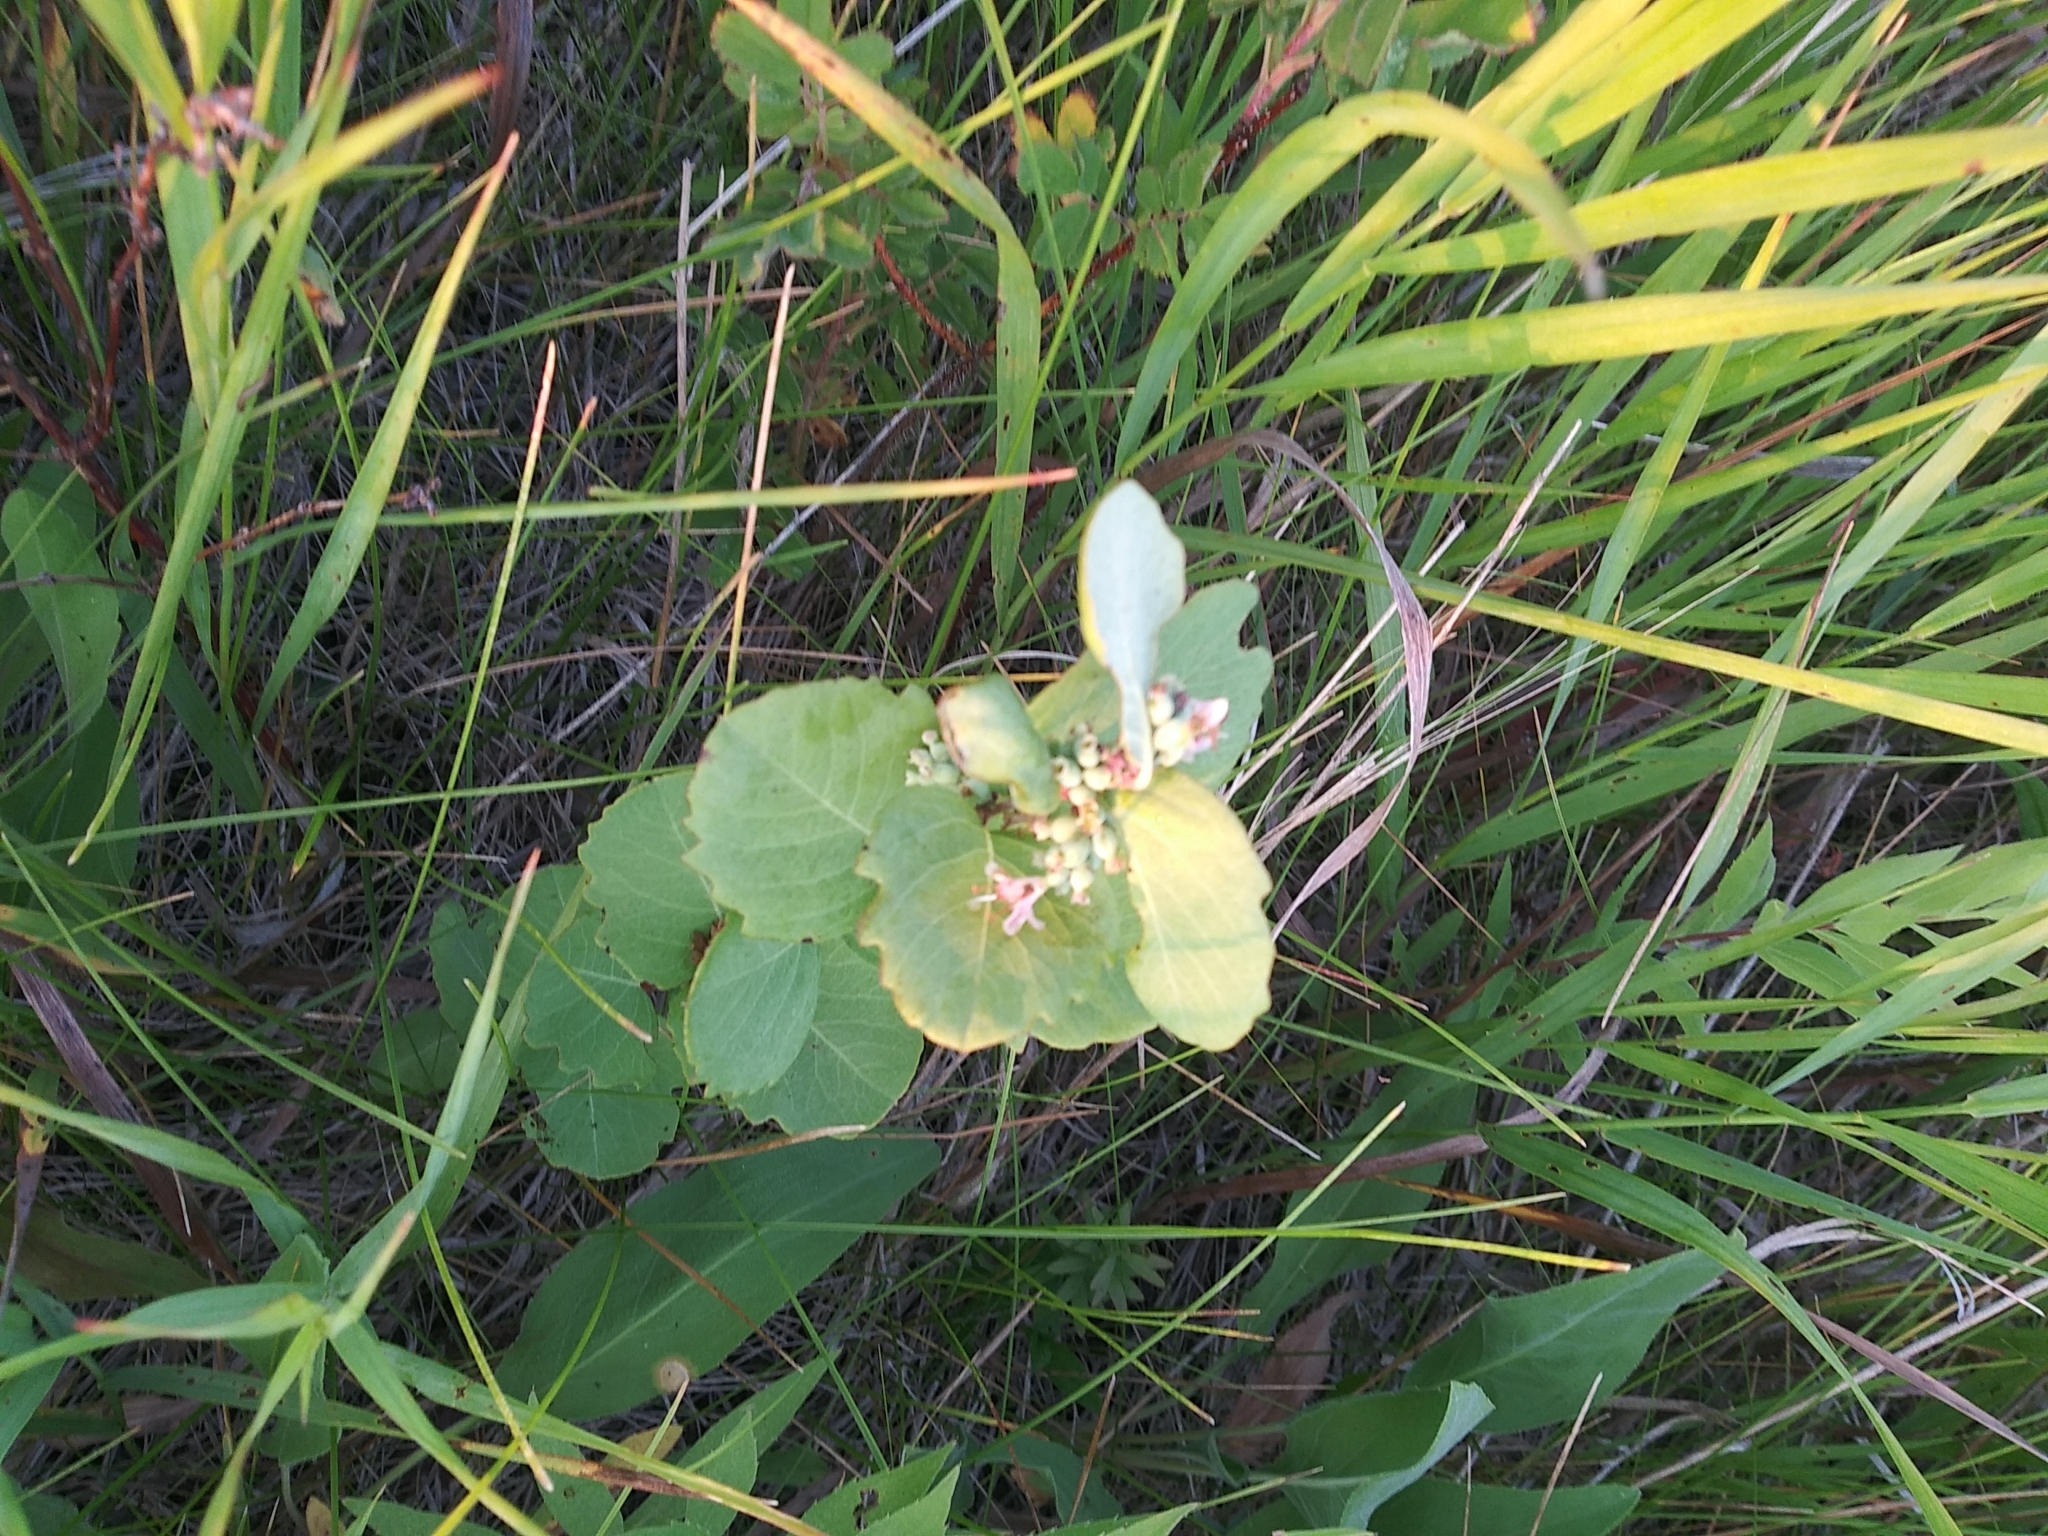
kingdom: Plantae
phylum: Tracheophyta
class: Magnoliopsida
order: Dipsacales
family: Caprifoliaceae
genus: Symphoricarpos
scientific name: Symphoricarpos occidentalis
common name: Wolfberry
